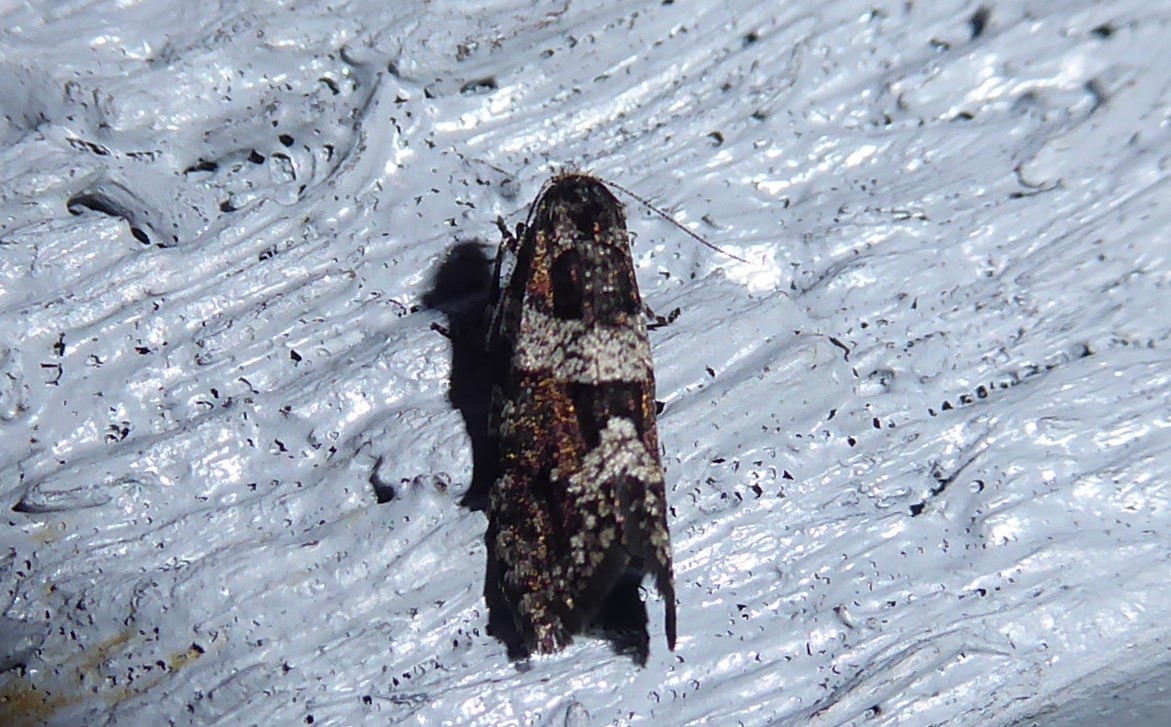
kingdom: Animalia
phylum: Arthropoda
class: Insecta
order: Lepidoptera
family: Psychidae
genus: Lepidoscia
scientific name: Lepidoscia heliochares
